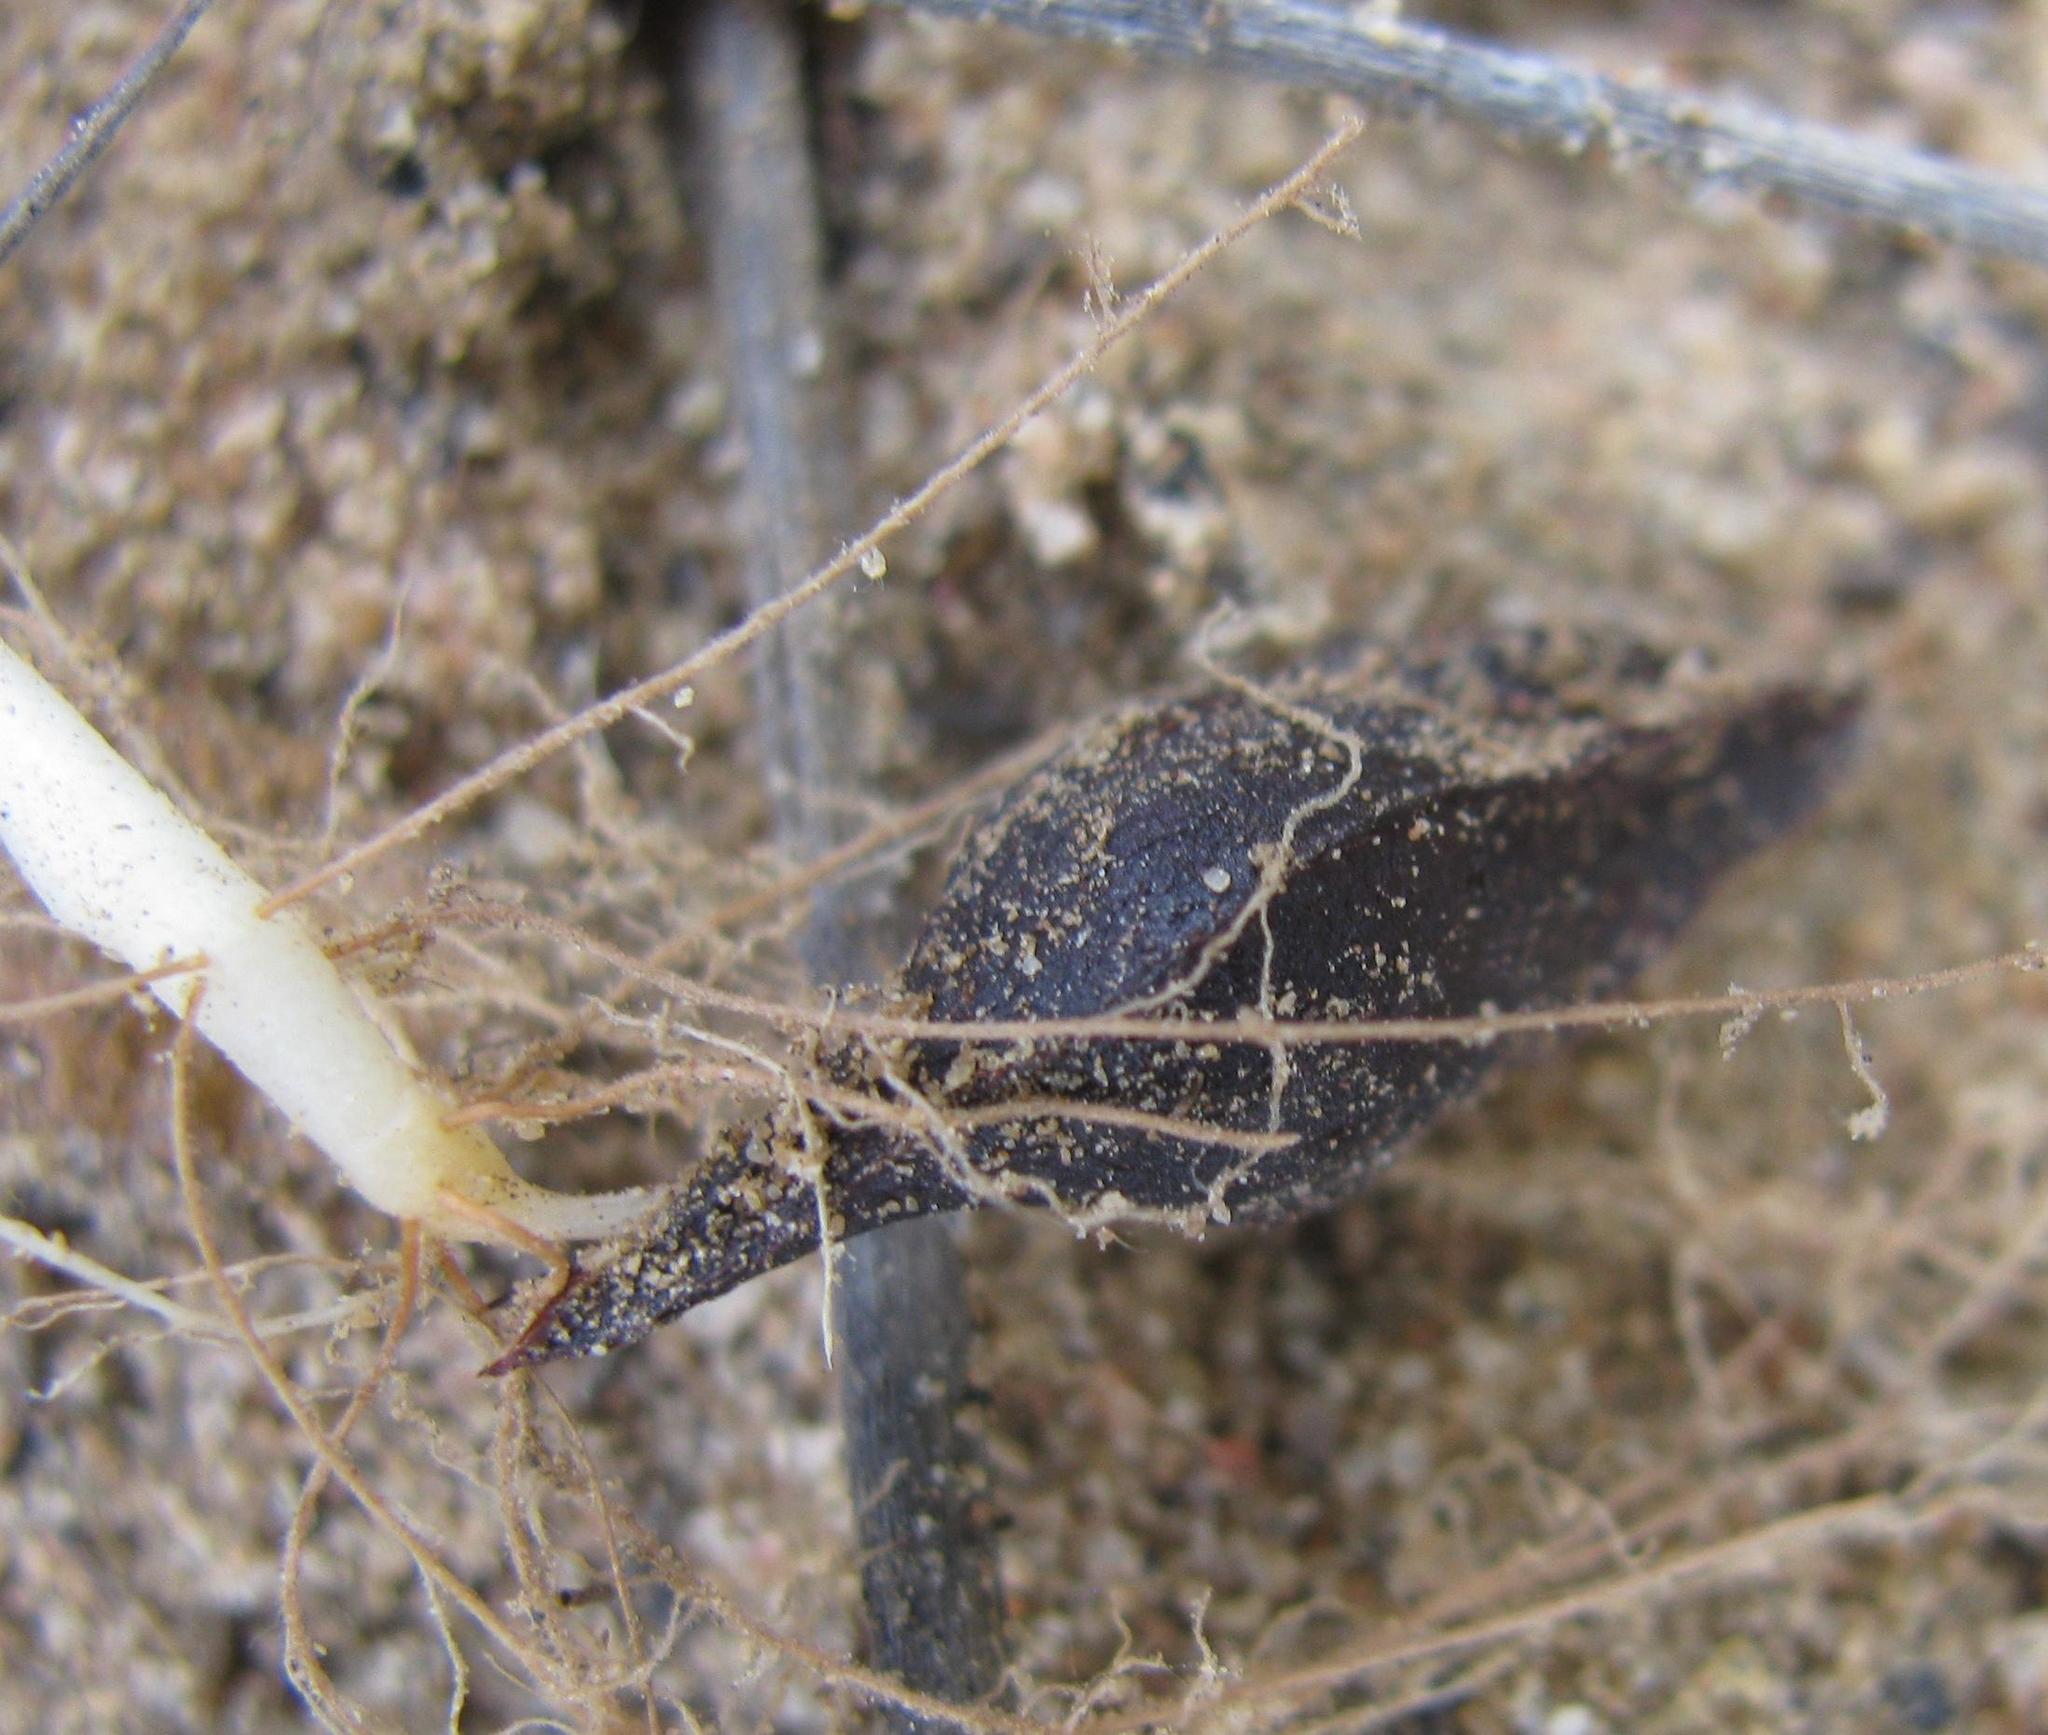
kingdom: Plantae
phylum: Tracheophyta
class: Magnoliopsida
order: Oxalidales
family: Oxalidaceae
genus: Oxalis
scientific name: Oxalis pocockiae
